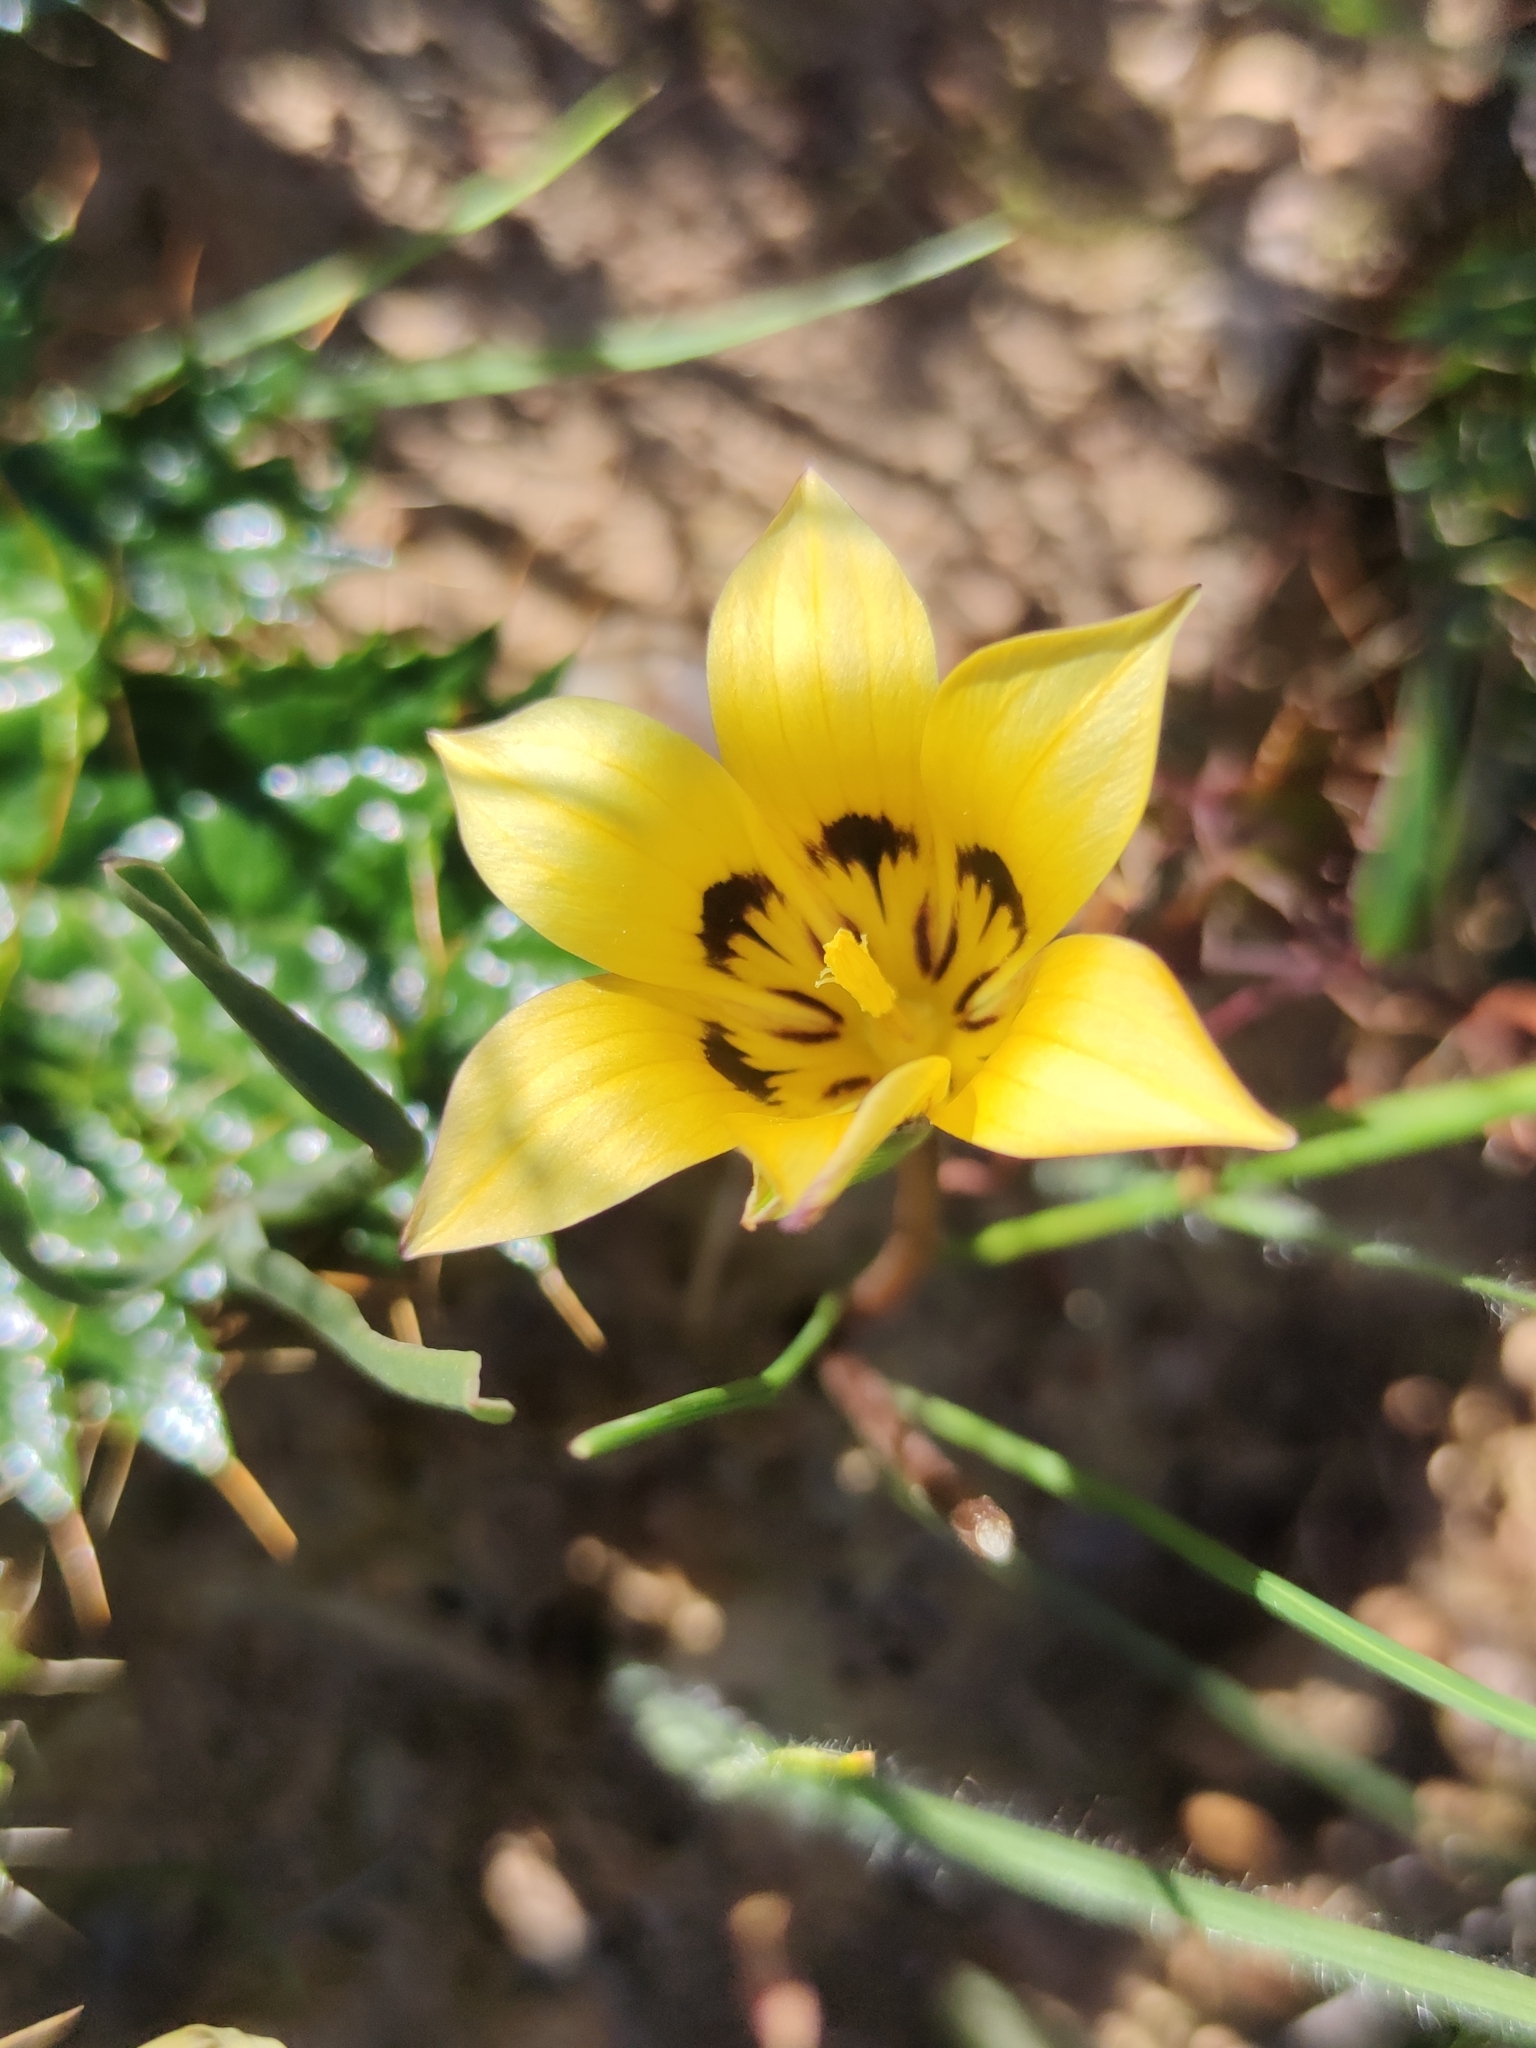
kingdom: Plantae
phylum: Tracheophyta
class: Liliopsida
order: Asparagales
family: Iridaceae
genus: Romulea
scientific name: Romulea viridibracteata
